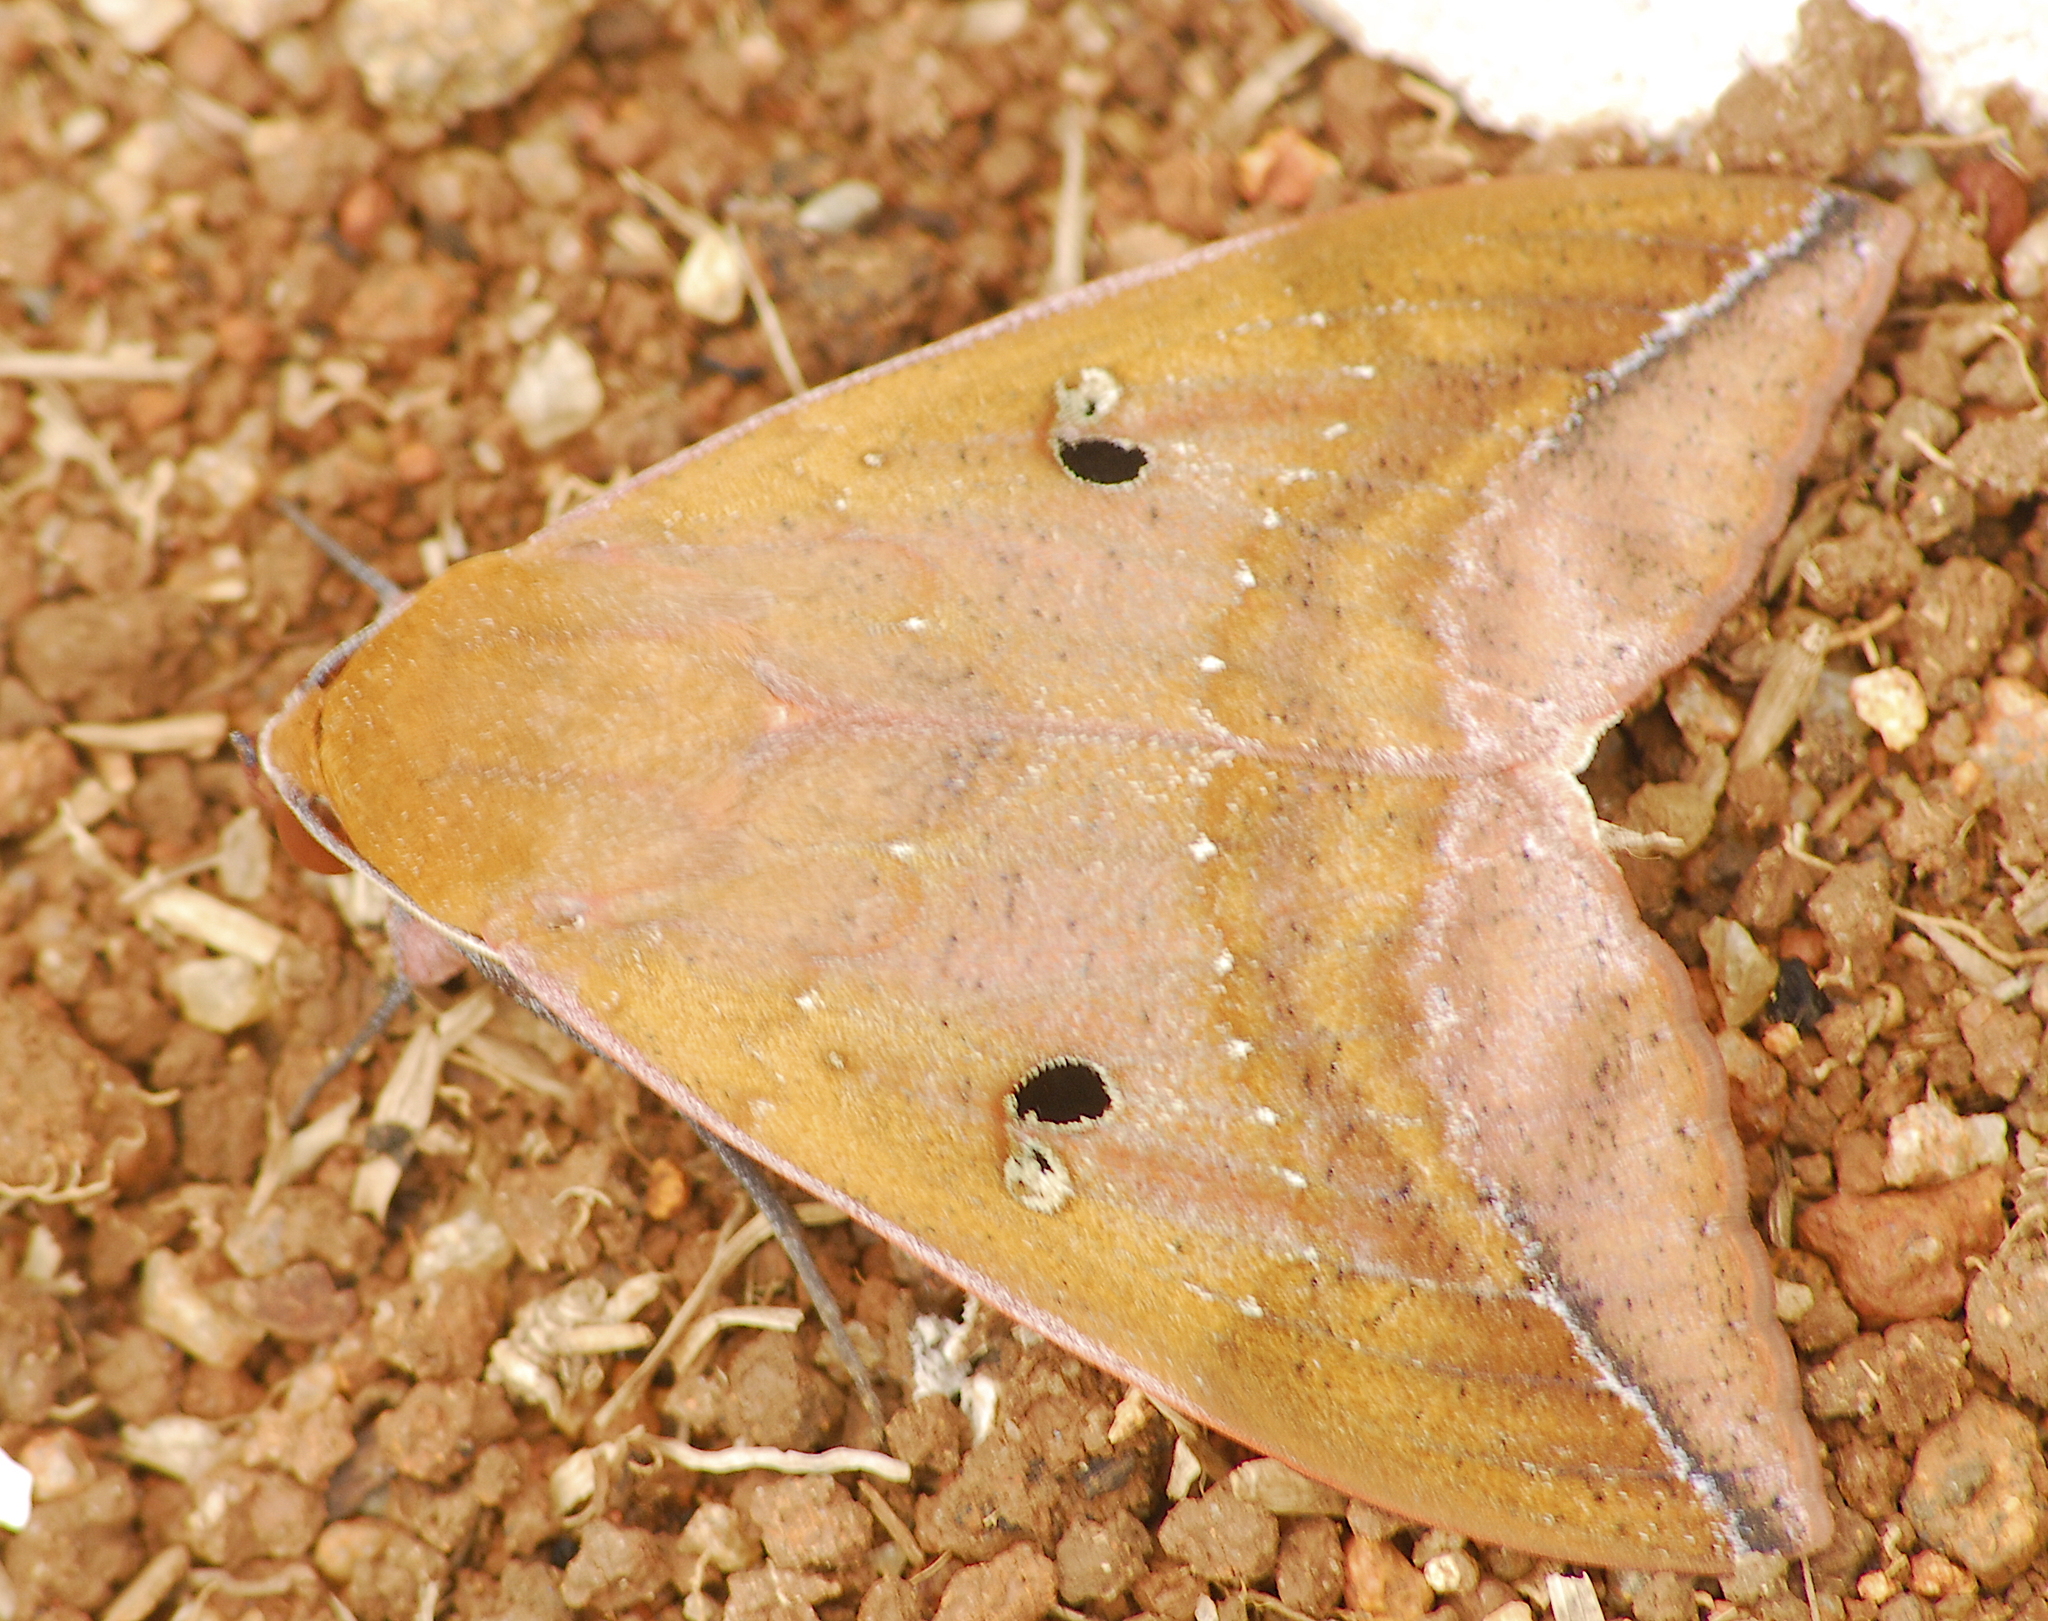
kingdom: Animalia
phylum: Arthropoda
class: Insecta
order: Lepidoptera
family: Erebidae
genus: Thyas
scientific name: Thyas honesta
